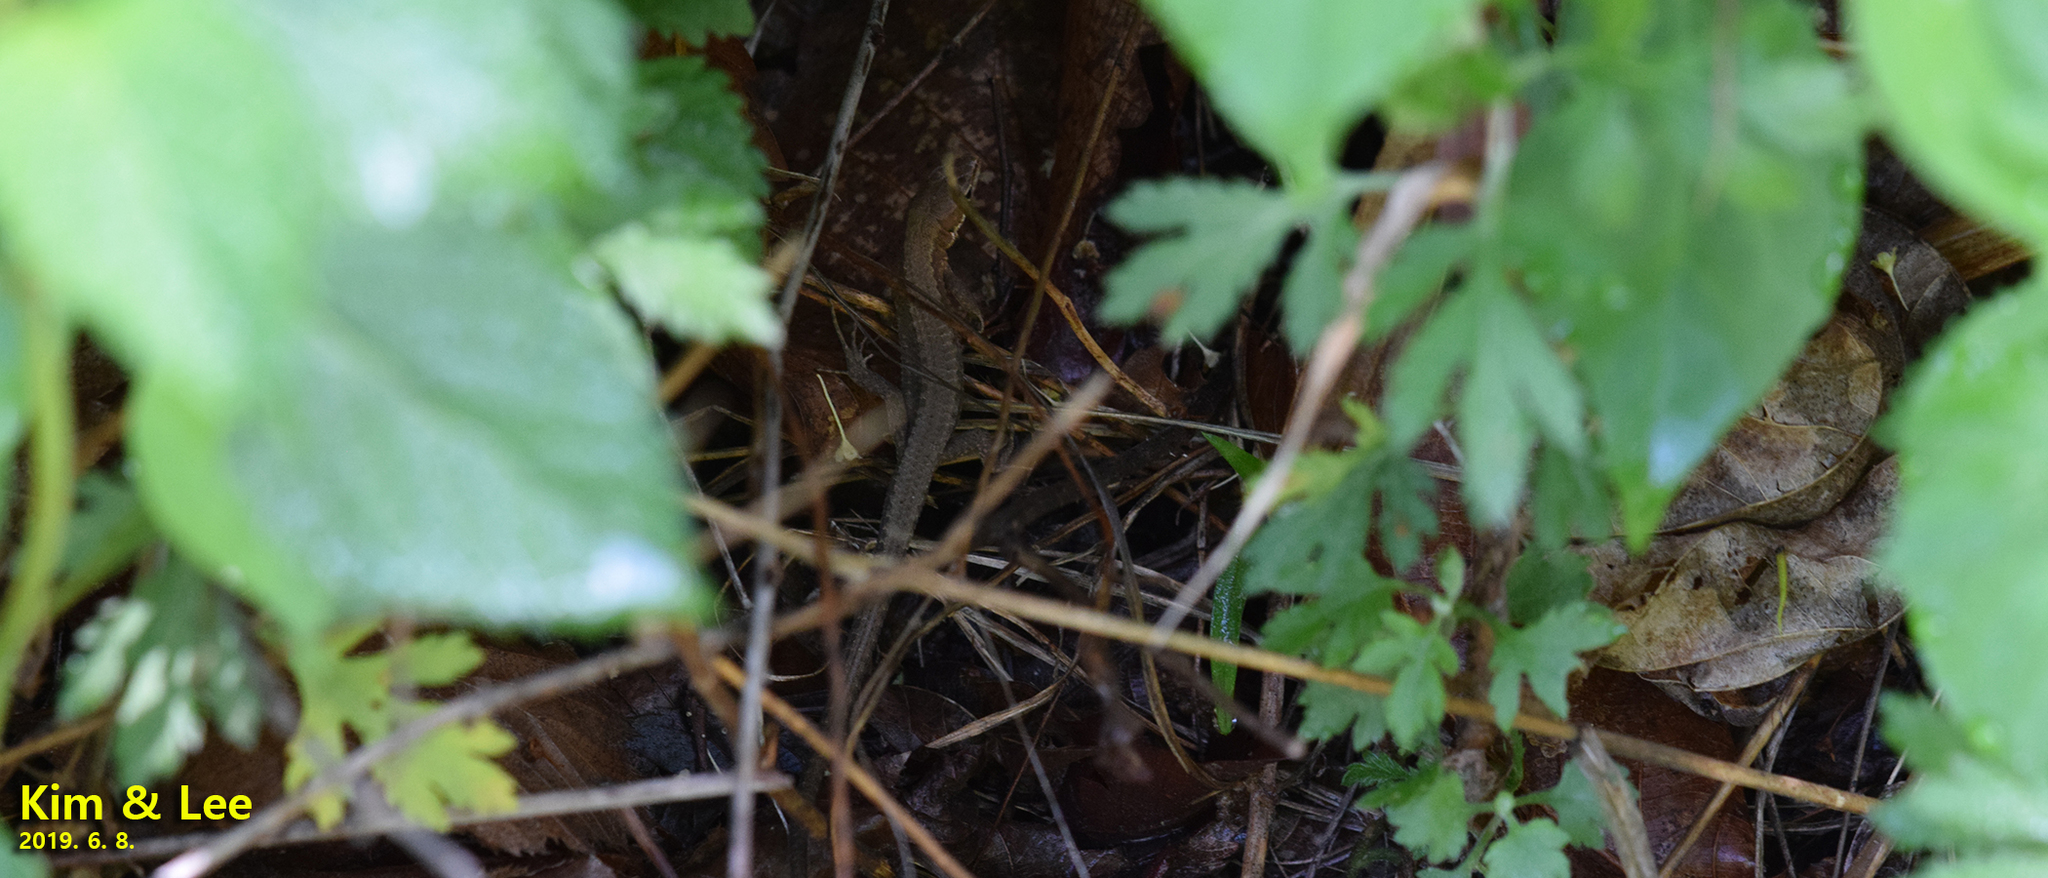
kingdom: Animalia
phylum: Chordata
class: Squamata
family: Lacertidae
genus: Takydromus
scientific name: Takydromus amurensis
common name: Amur grass lizard
